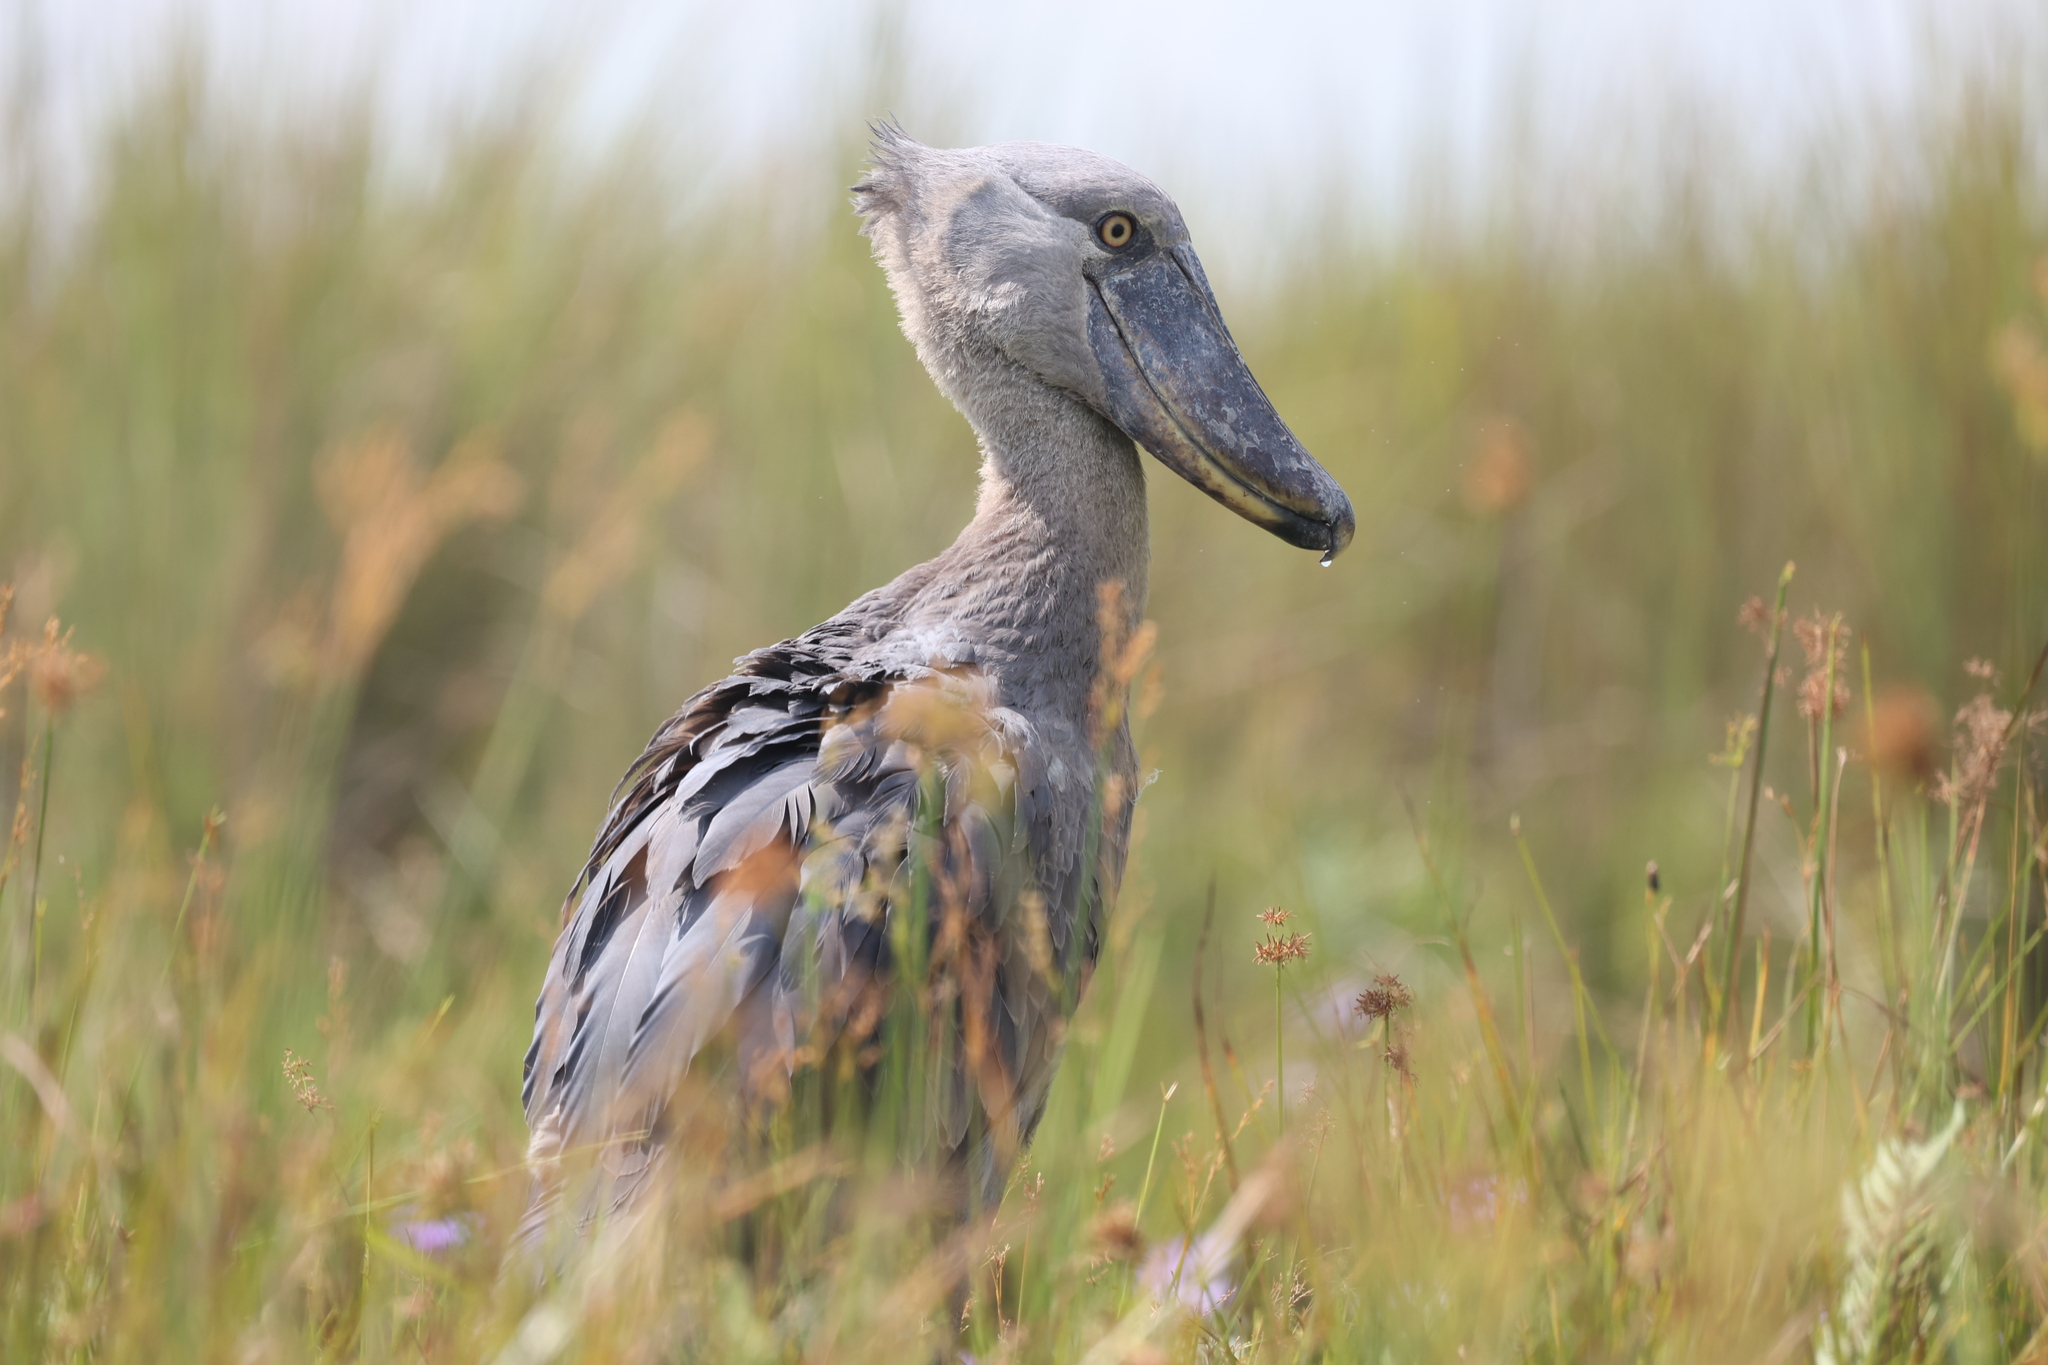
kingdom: Animalia
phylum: Chordata
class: Aves
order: Pelecaniformes
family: Balaenicipitidae
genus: Balaeniceps
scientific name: Balaeniceps rex
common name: Shoebill
